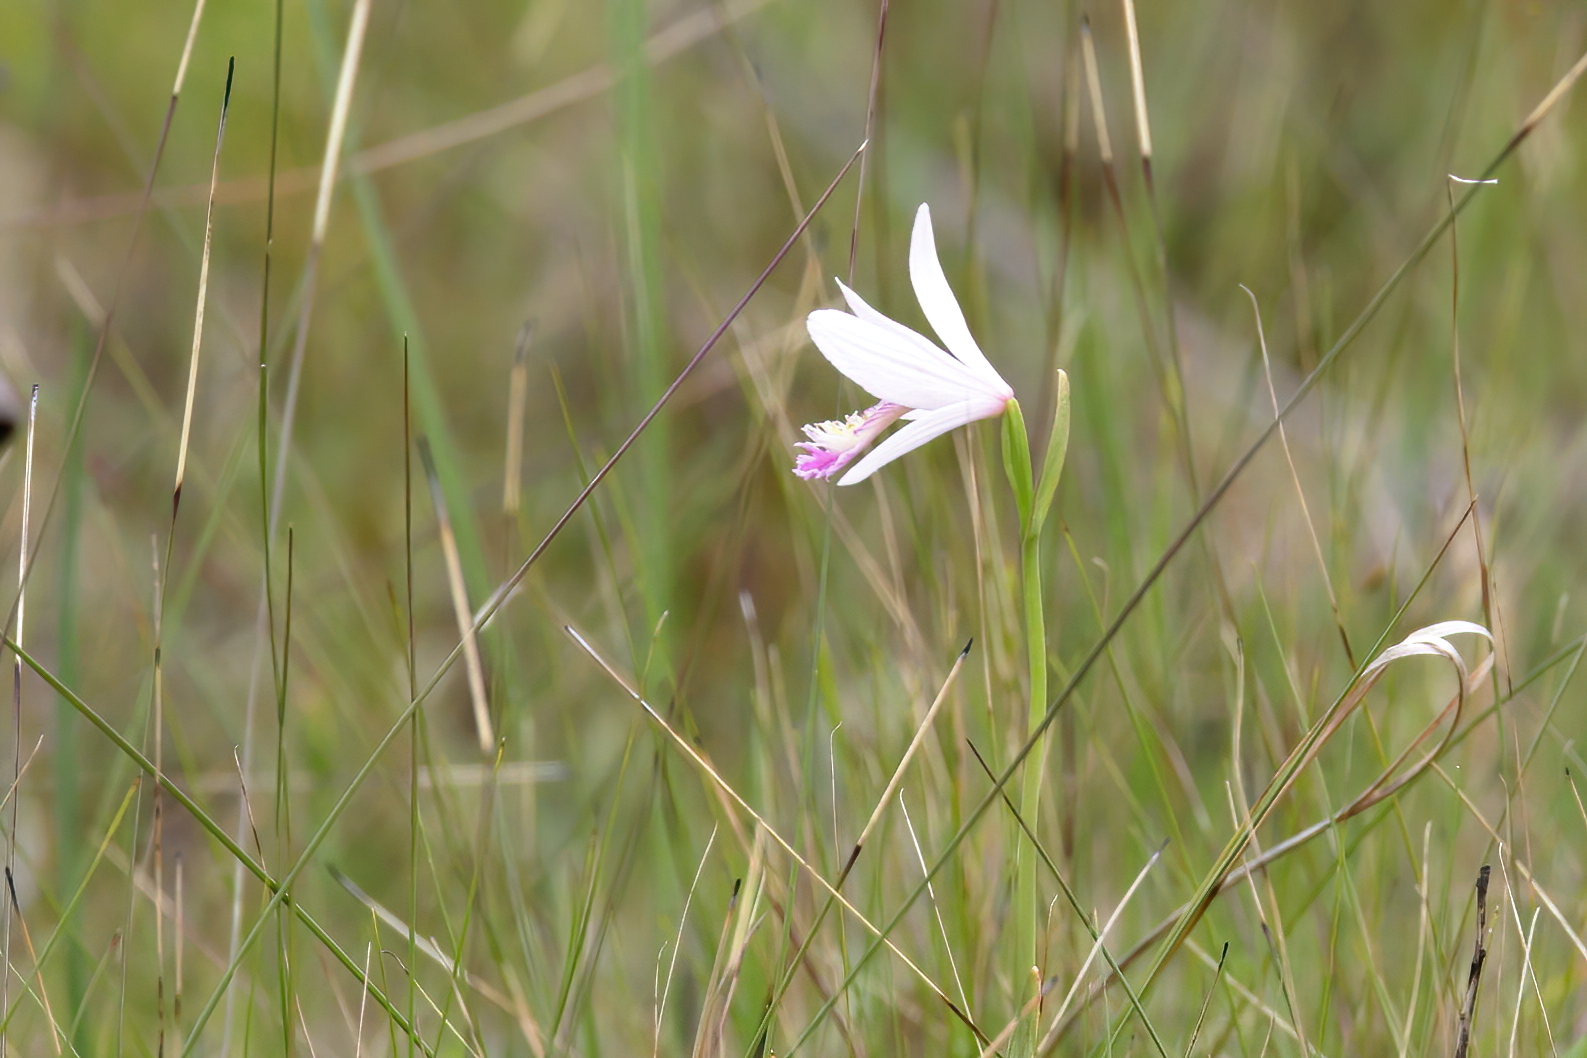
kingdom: Plantae
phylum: Tracheophyta
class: Liliopsida
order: Asparagales
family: Orchidaceae
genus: Pogonia
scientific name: Pogonia ophioglossoides
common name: Rose pogonia
